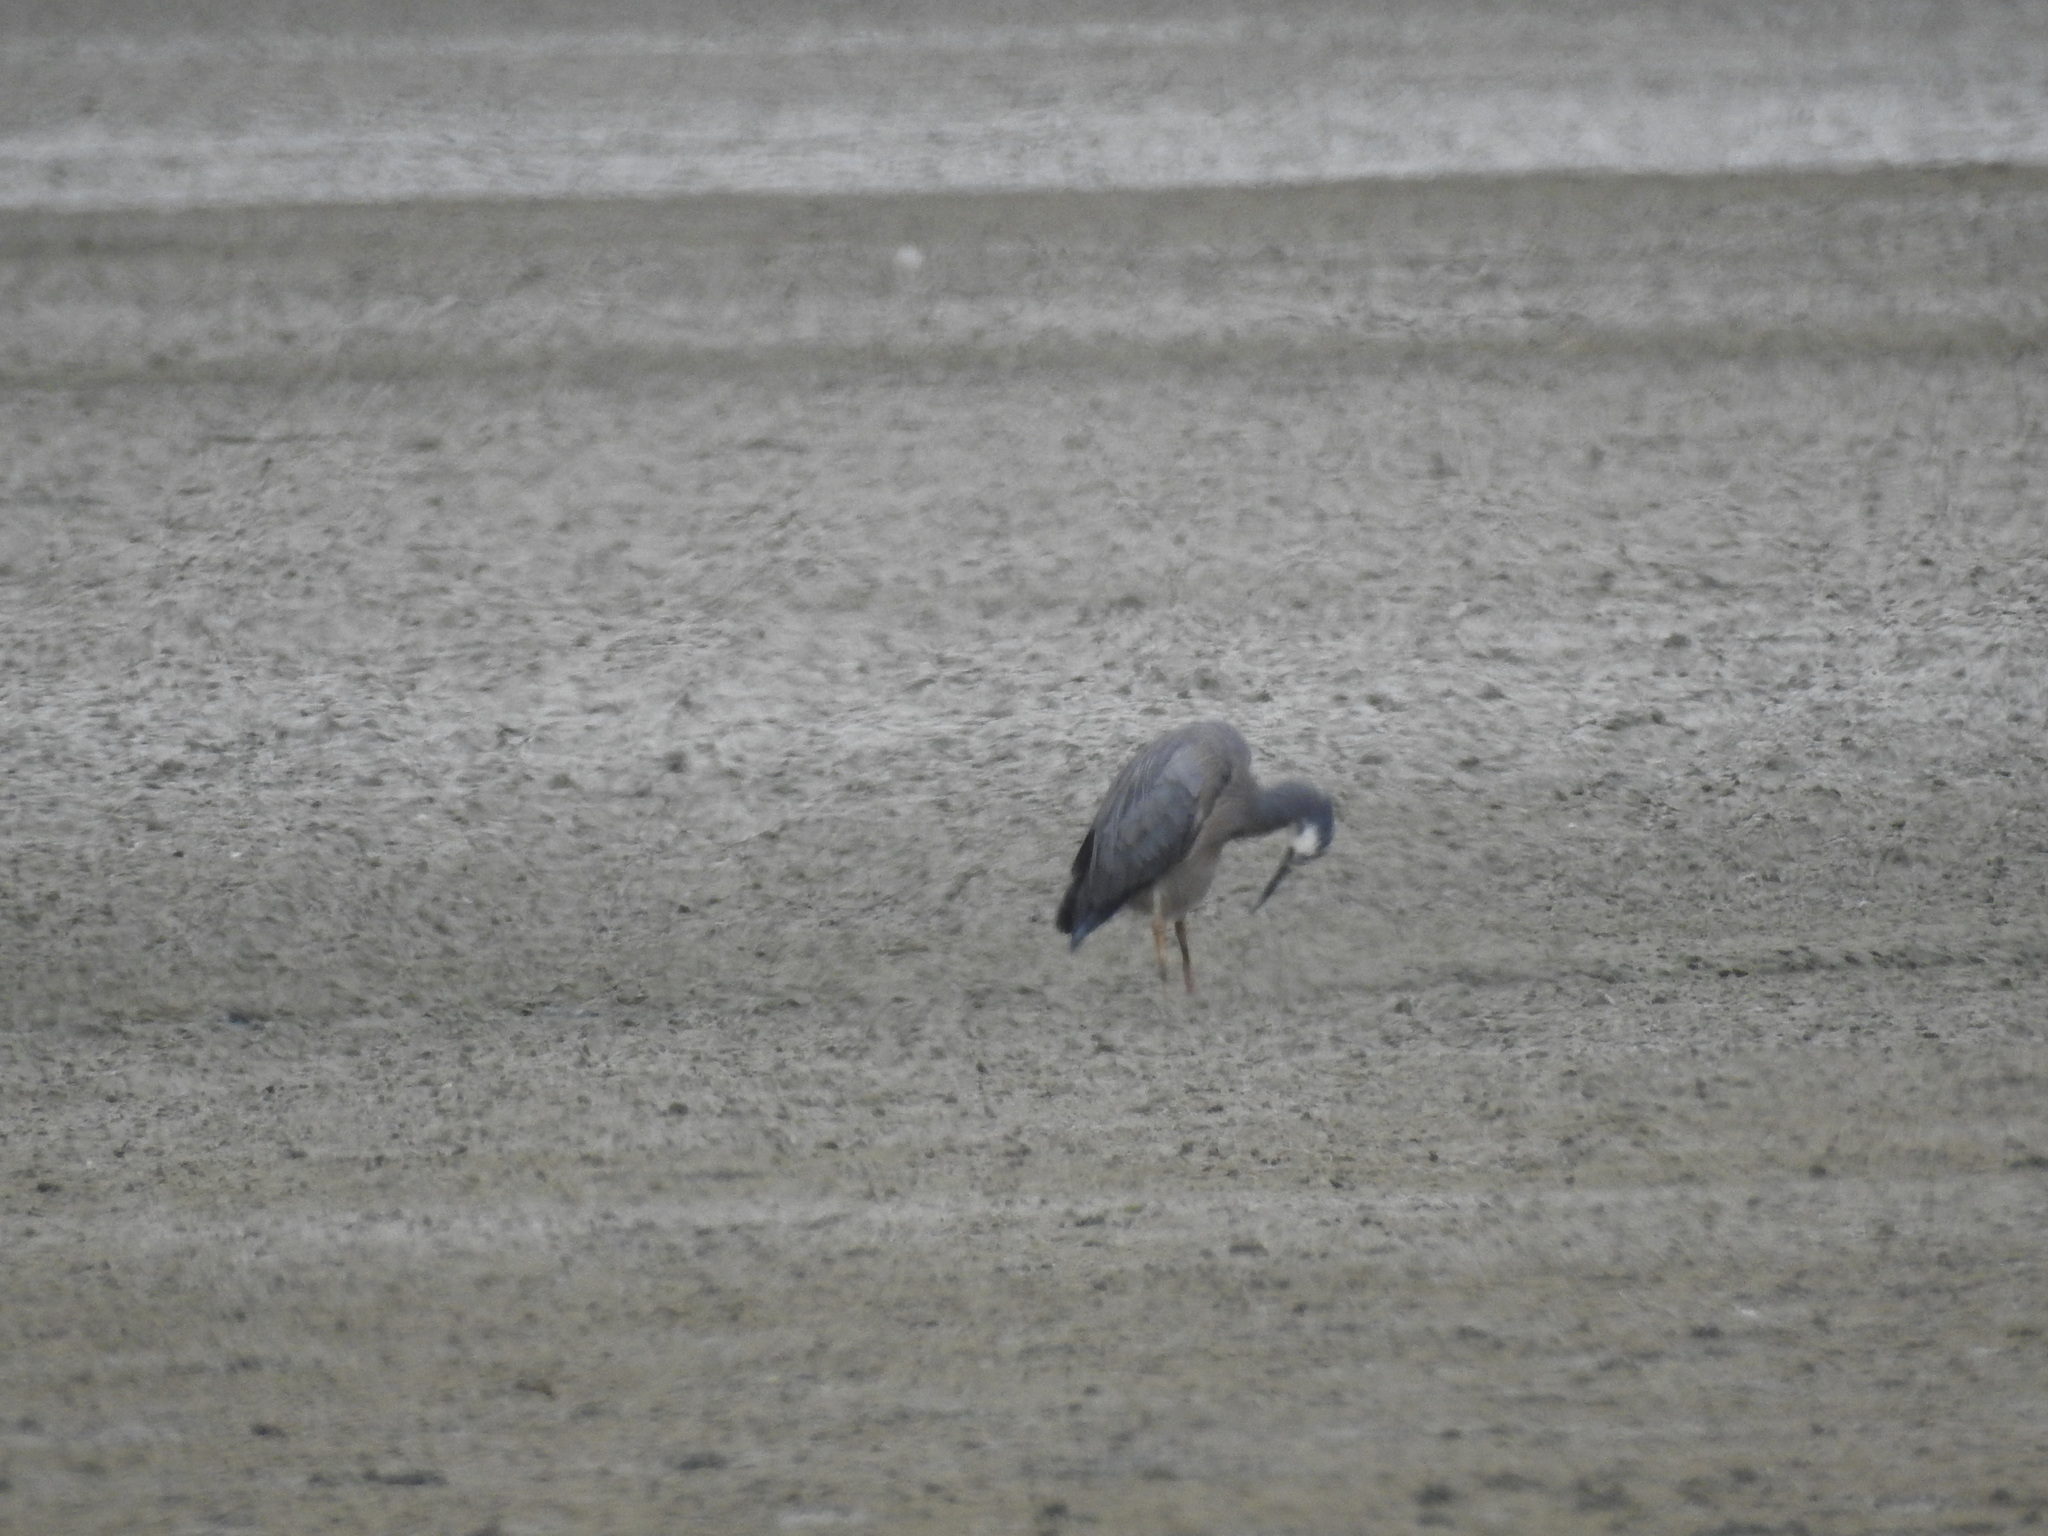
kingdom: Animalia
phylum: Chordata
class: Aves
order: Pelecaniformes
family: Ardeidae
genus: Egretta
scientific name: Egretta novaehollandiae
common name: White-faced heron
